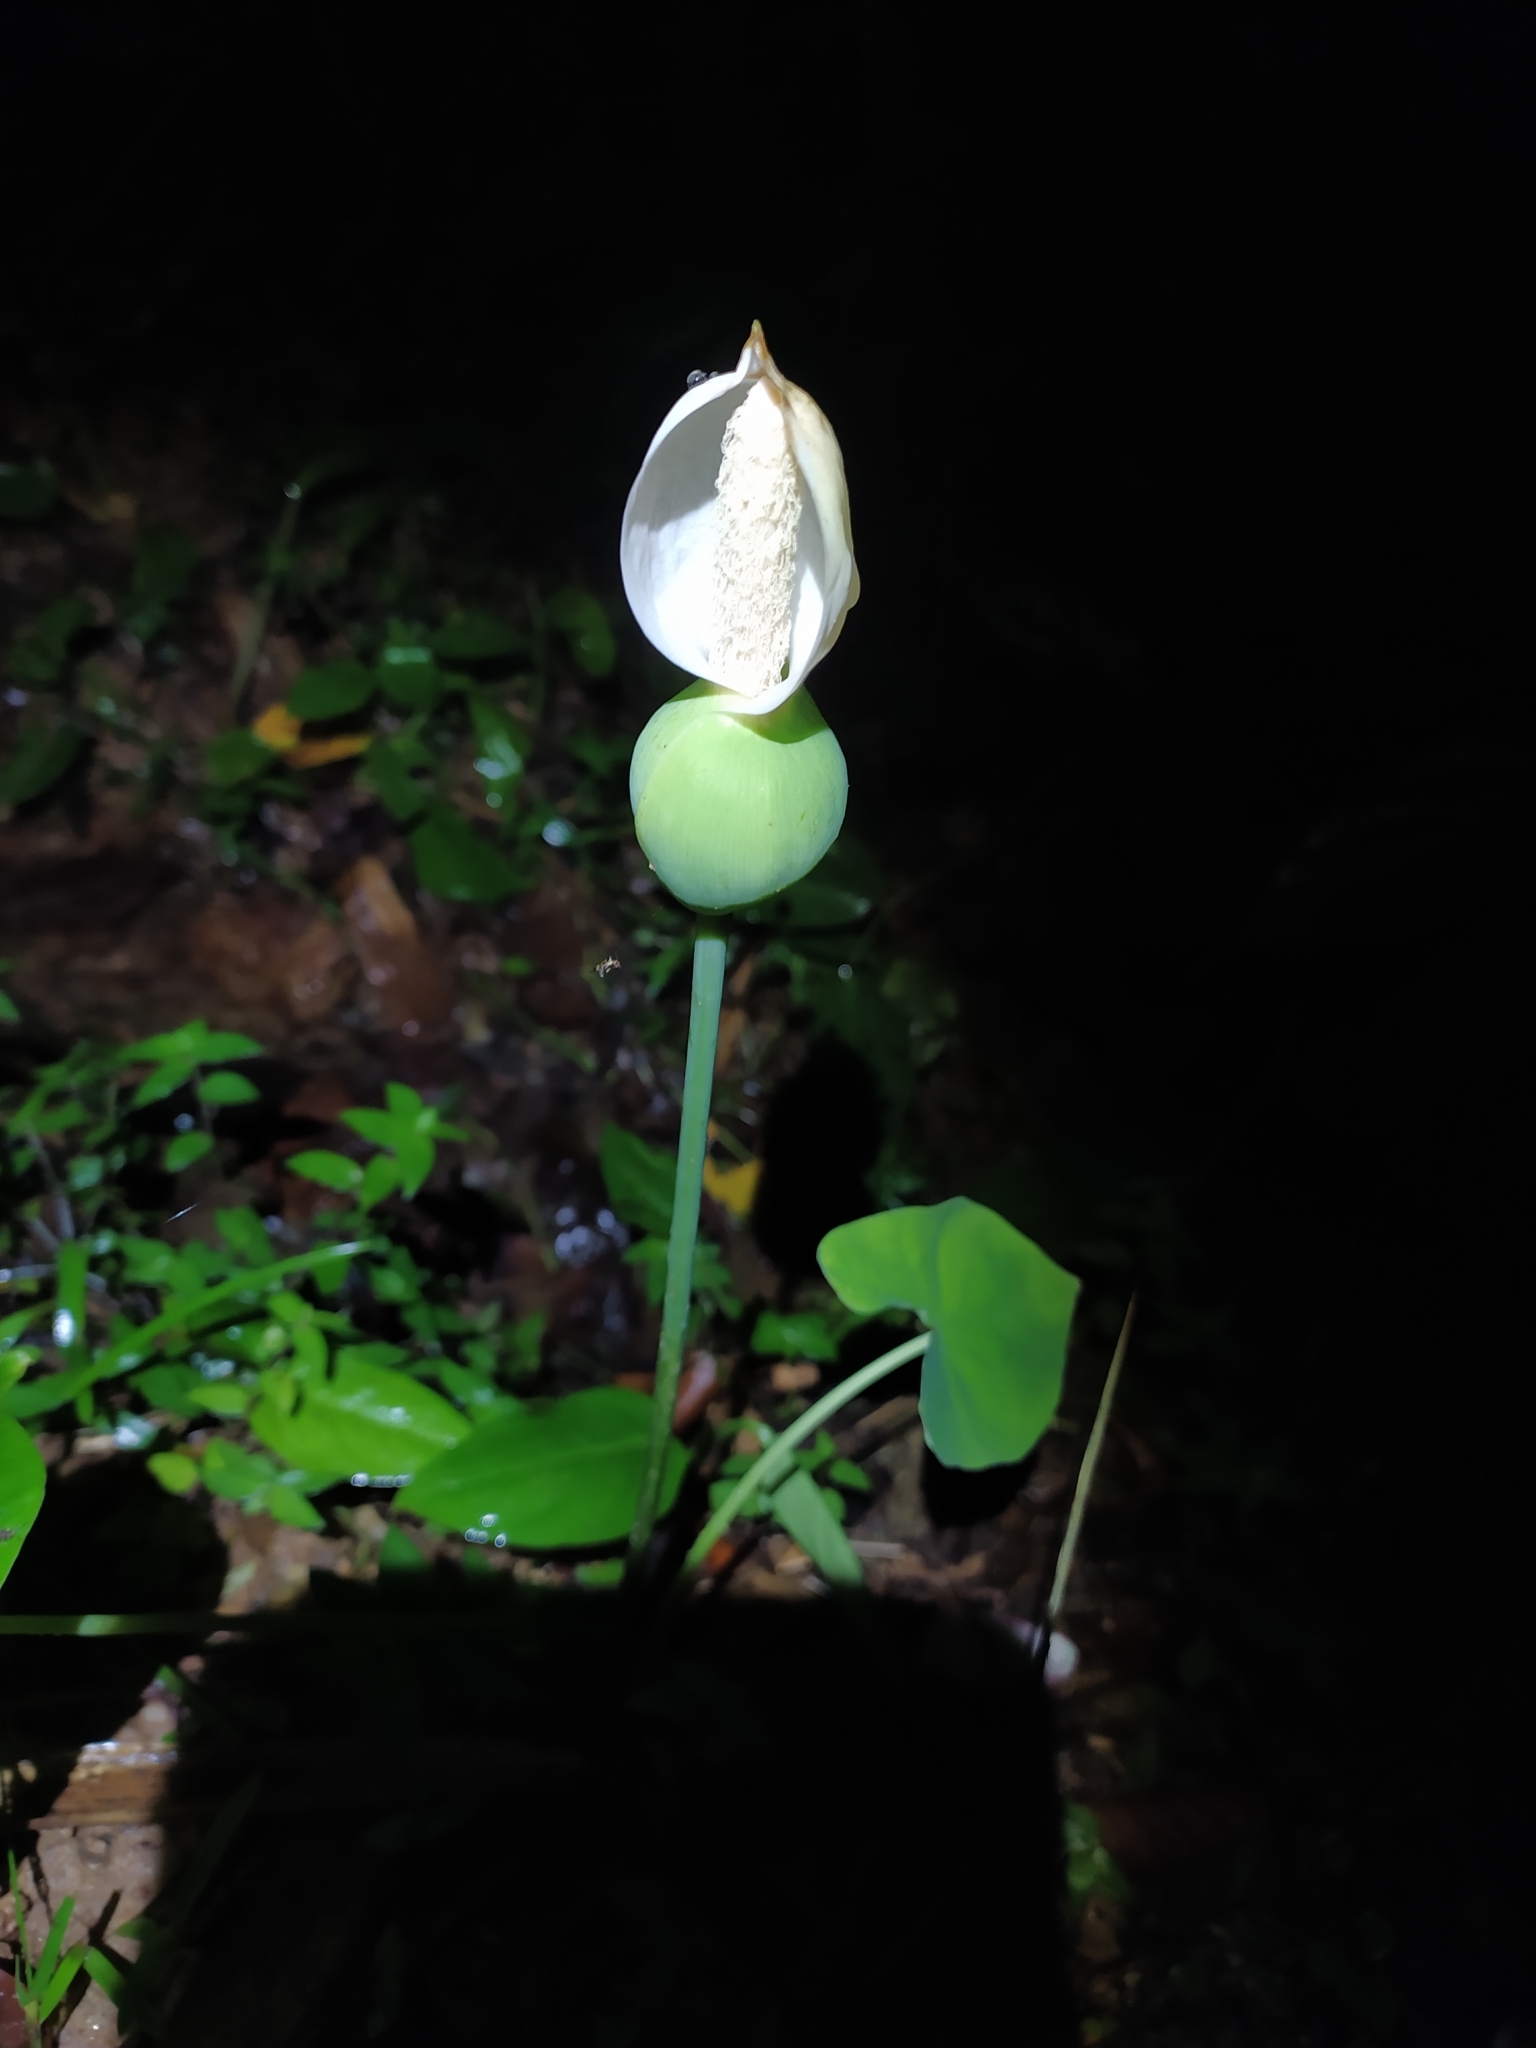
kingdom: Plantae
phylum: Tracheophyta
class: Liliopsida
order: Alismatales
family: Araceae
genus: Caladium
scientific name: Caladium bicolor
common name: Artist's pallet
